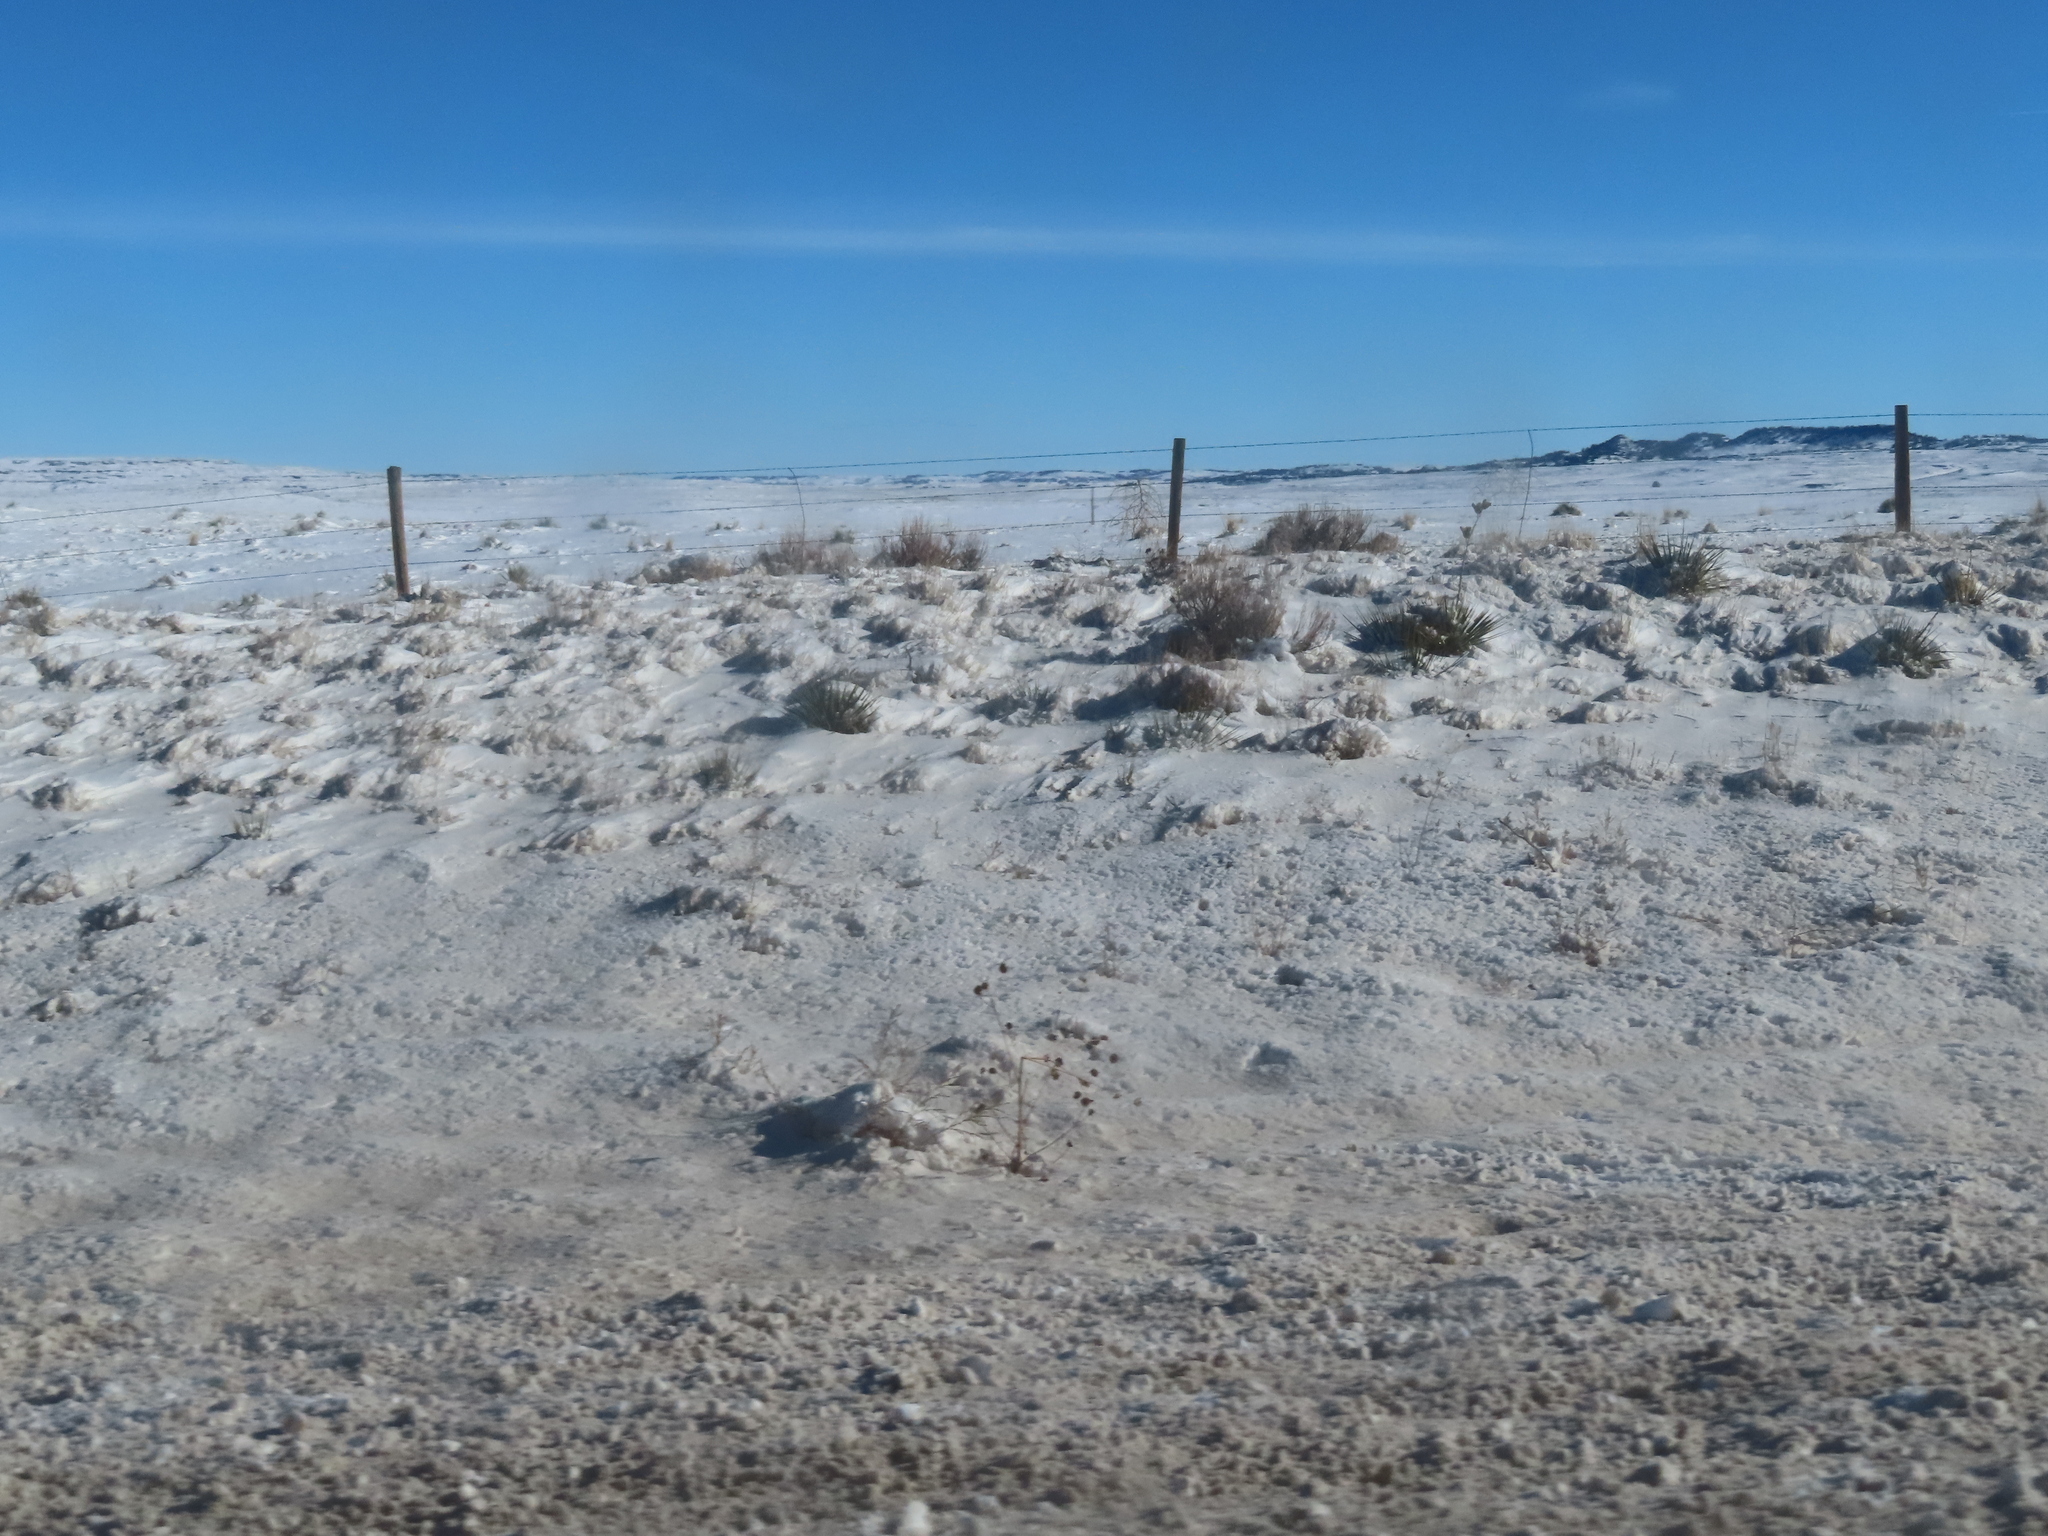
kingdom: Plantae
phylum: Tracheophyta
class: Liliopsida
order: Asparagales
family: Asparagaceae
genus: Yucca
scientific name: Yucca glauca
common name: Great plains yucca
